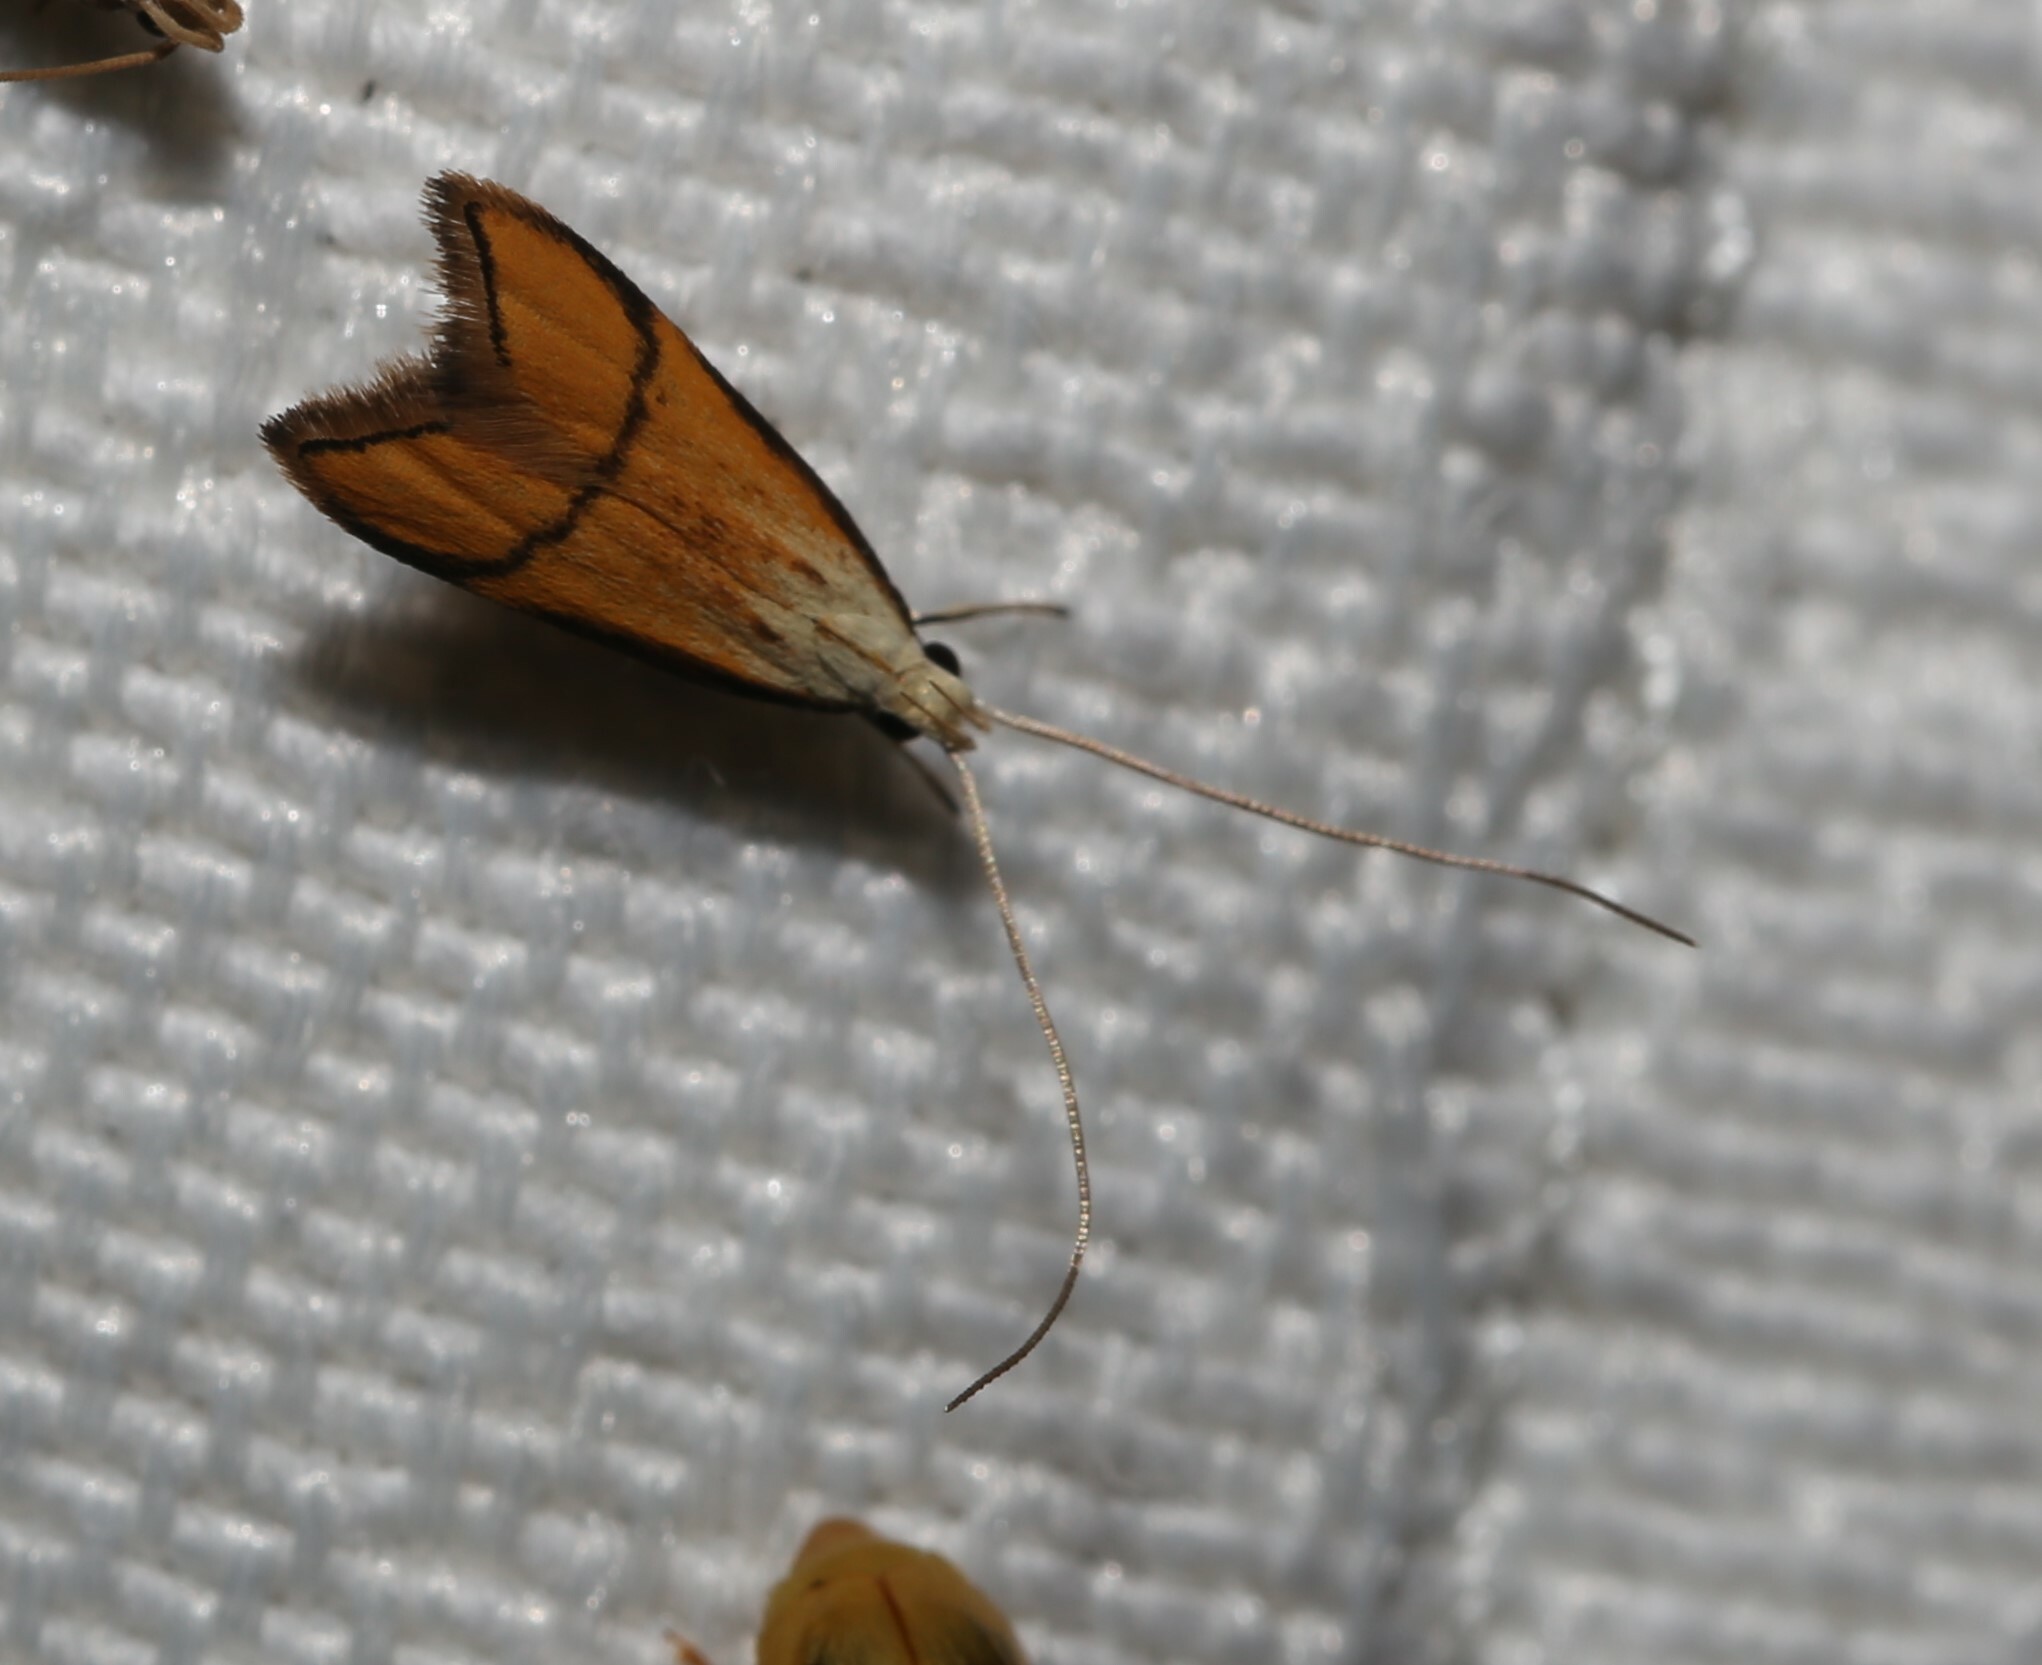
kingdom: Animalia
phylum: Arthropoda
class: Insecta
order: Lepidoptera
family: Lecithoceridae
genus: Crocanthes
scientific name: Crocanthes perigrapta
